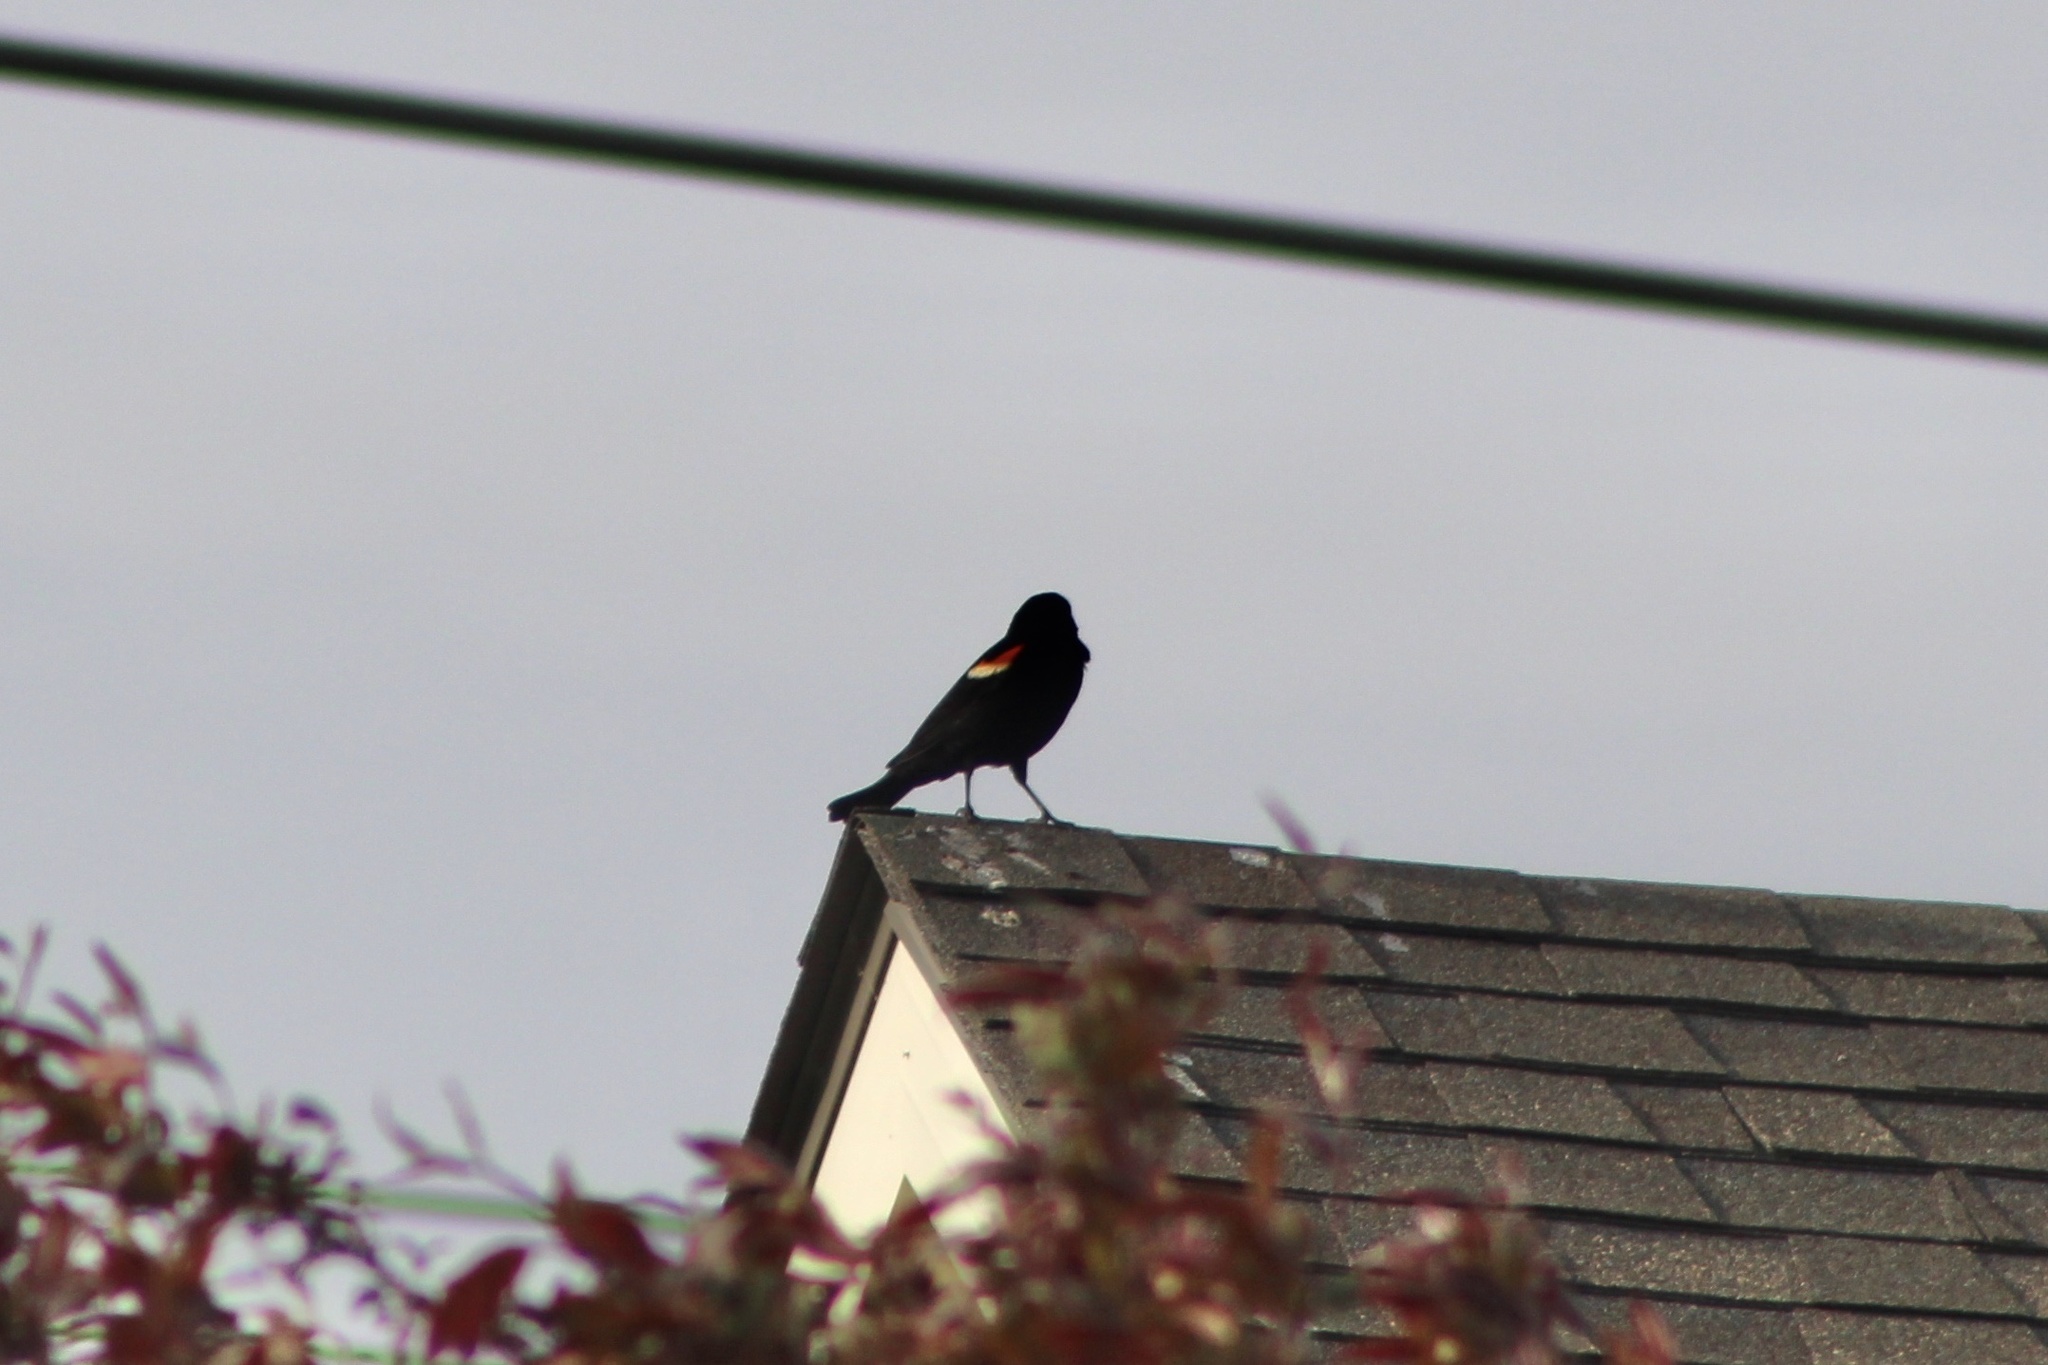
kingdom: Animalia
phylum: Chordata
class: Aves
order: Passeriformes
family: Icteridae
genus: Agelaius
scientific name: Agelaius phoeniceus
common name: Red-winged blackbird
